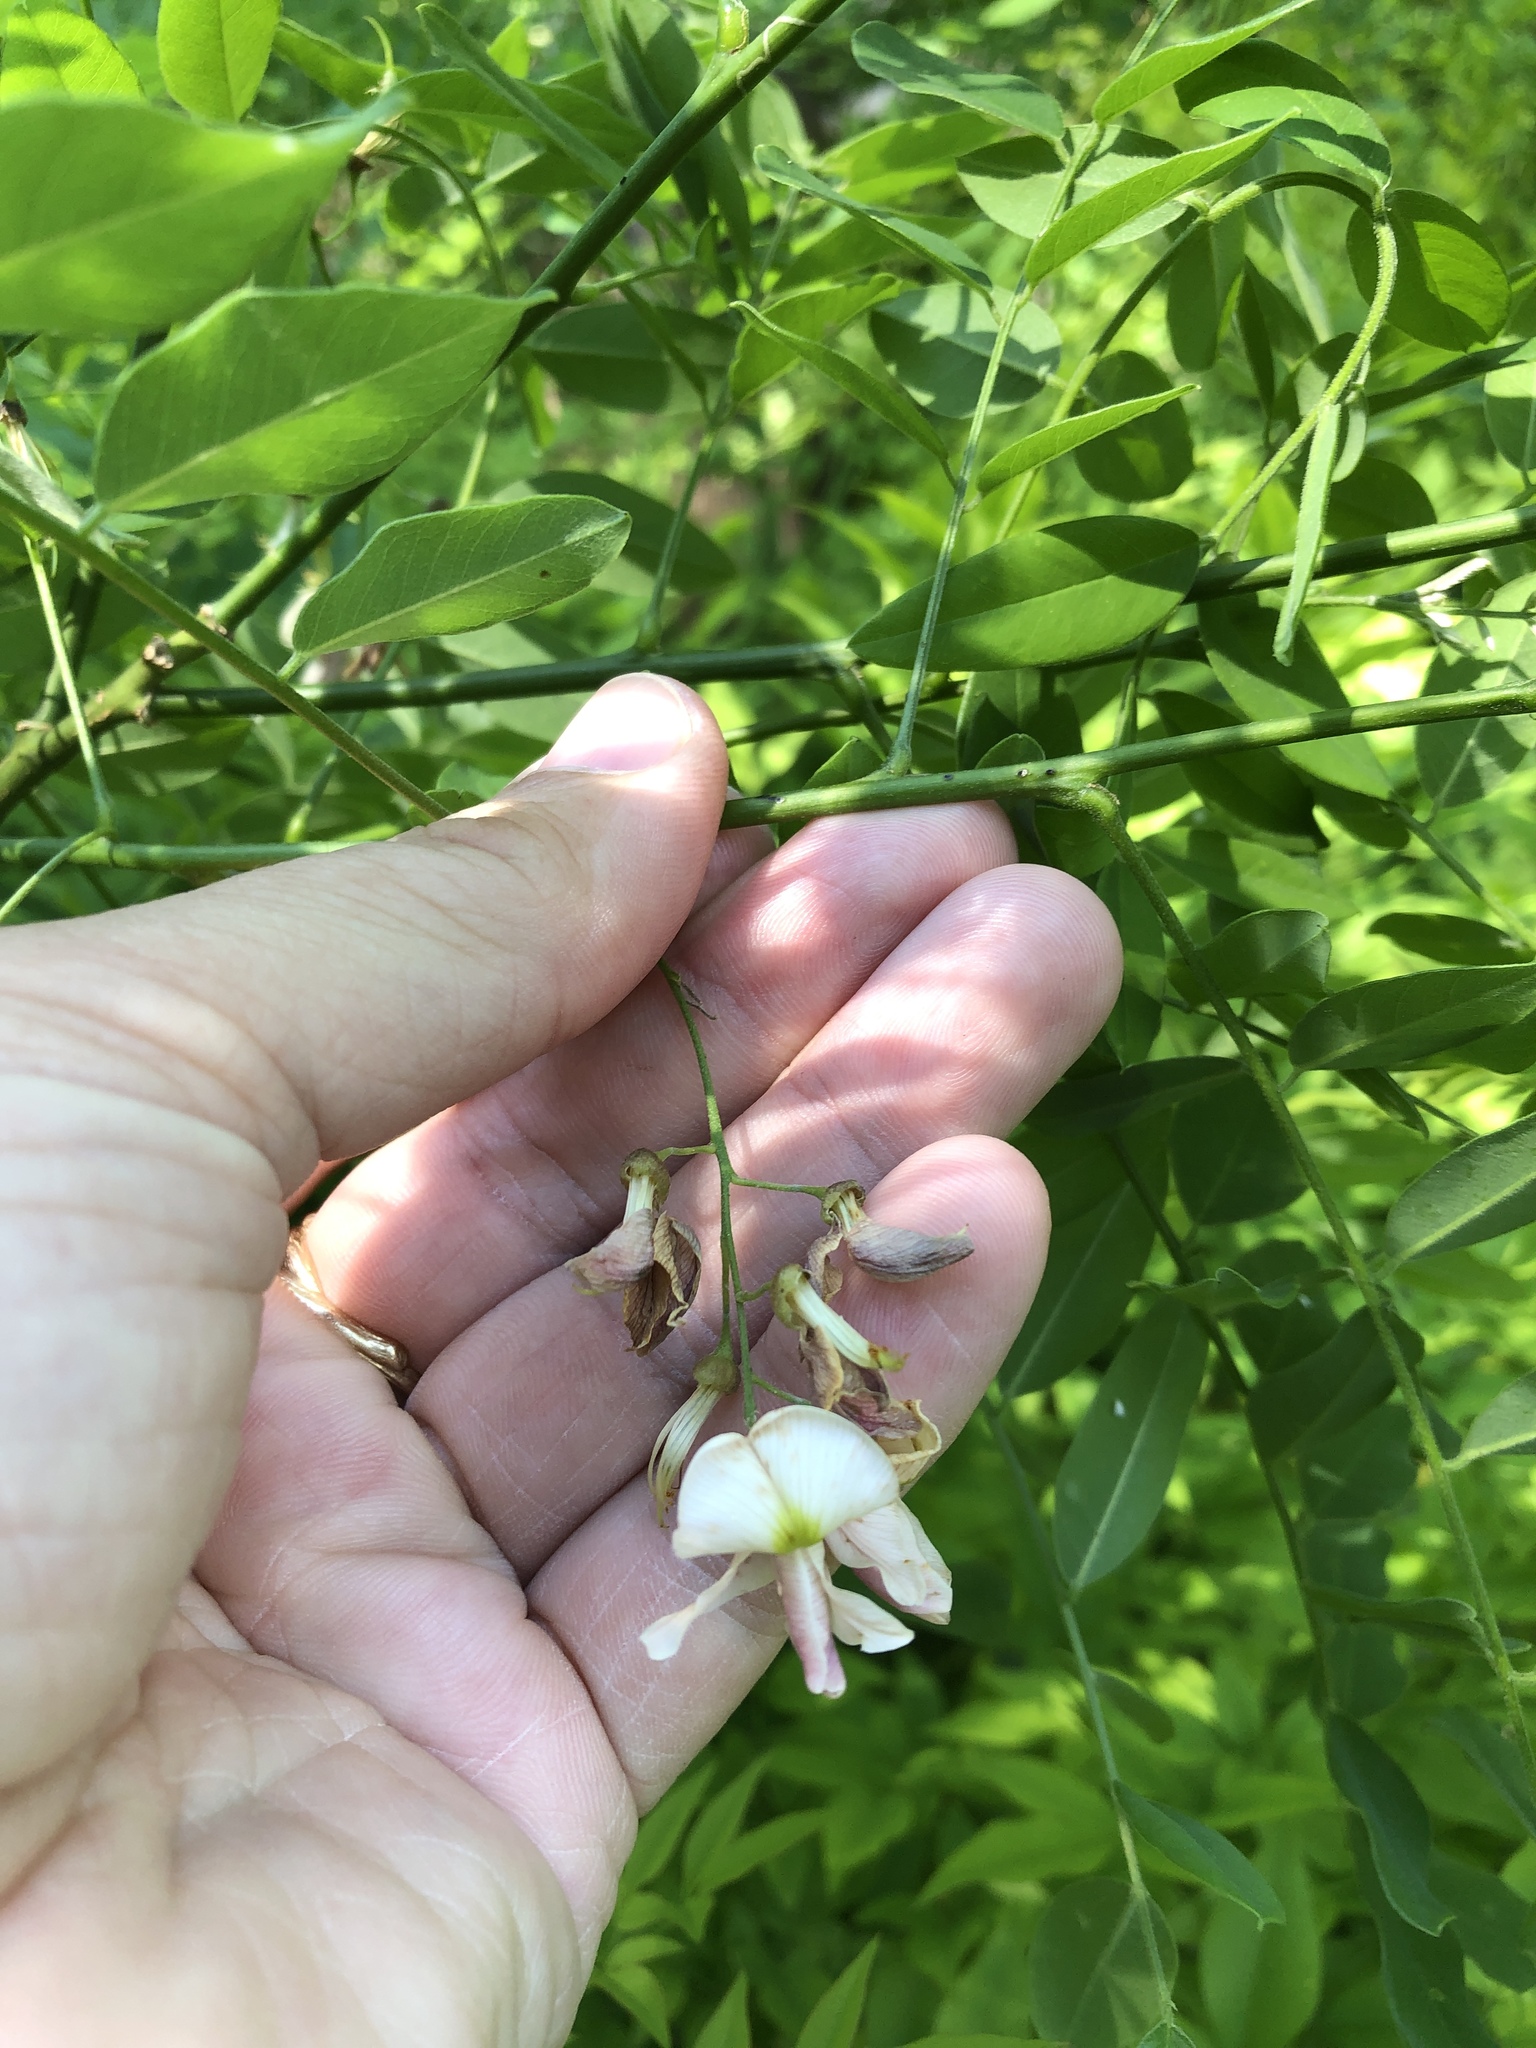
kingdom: Plantae
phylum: Tracheophyta
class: Magnoliopsida
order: Fabales
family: Fabaceae
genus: Styphnolobium
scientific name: Styphnolobium affine
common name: Texas sophora
